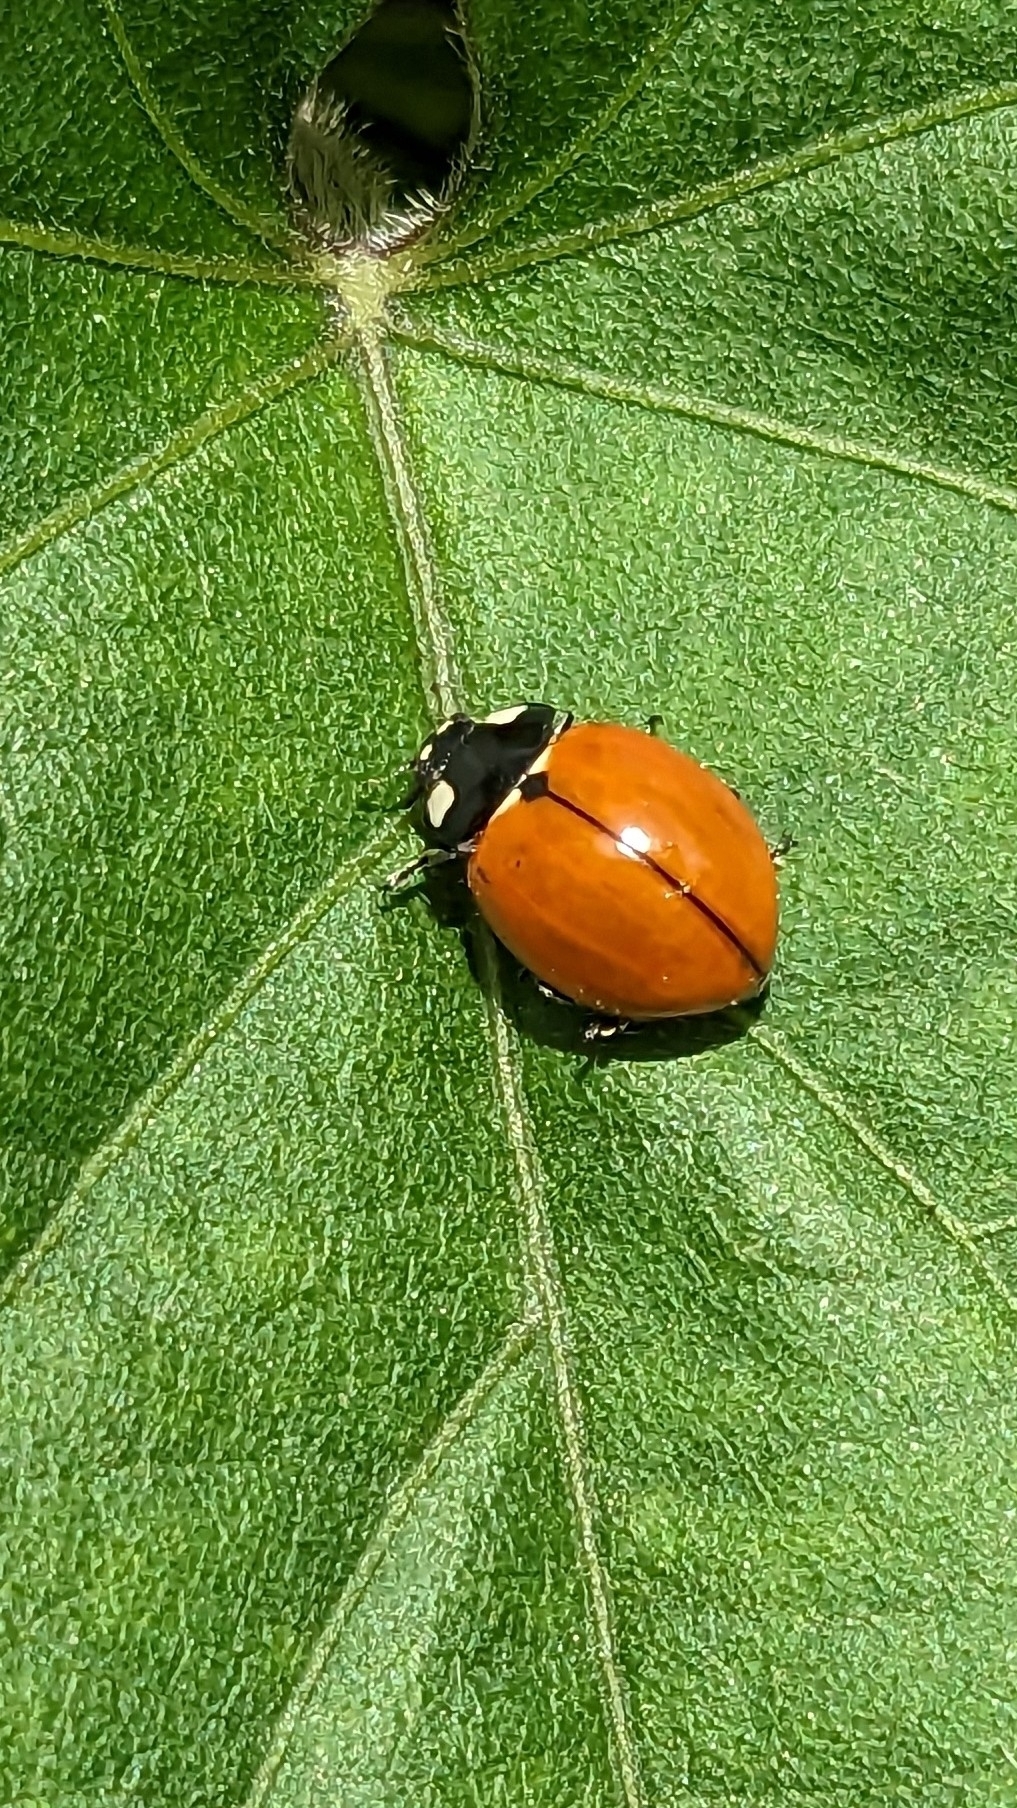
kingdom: Animalia
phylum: Arthropoda
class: Insecta
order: Coleoptera
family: Coccinellidae
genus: Coccinella
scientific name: Coccinella californica
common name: Lady beetle
